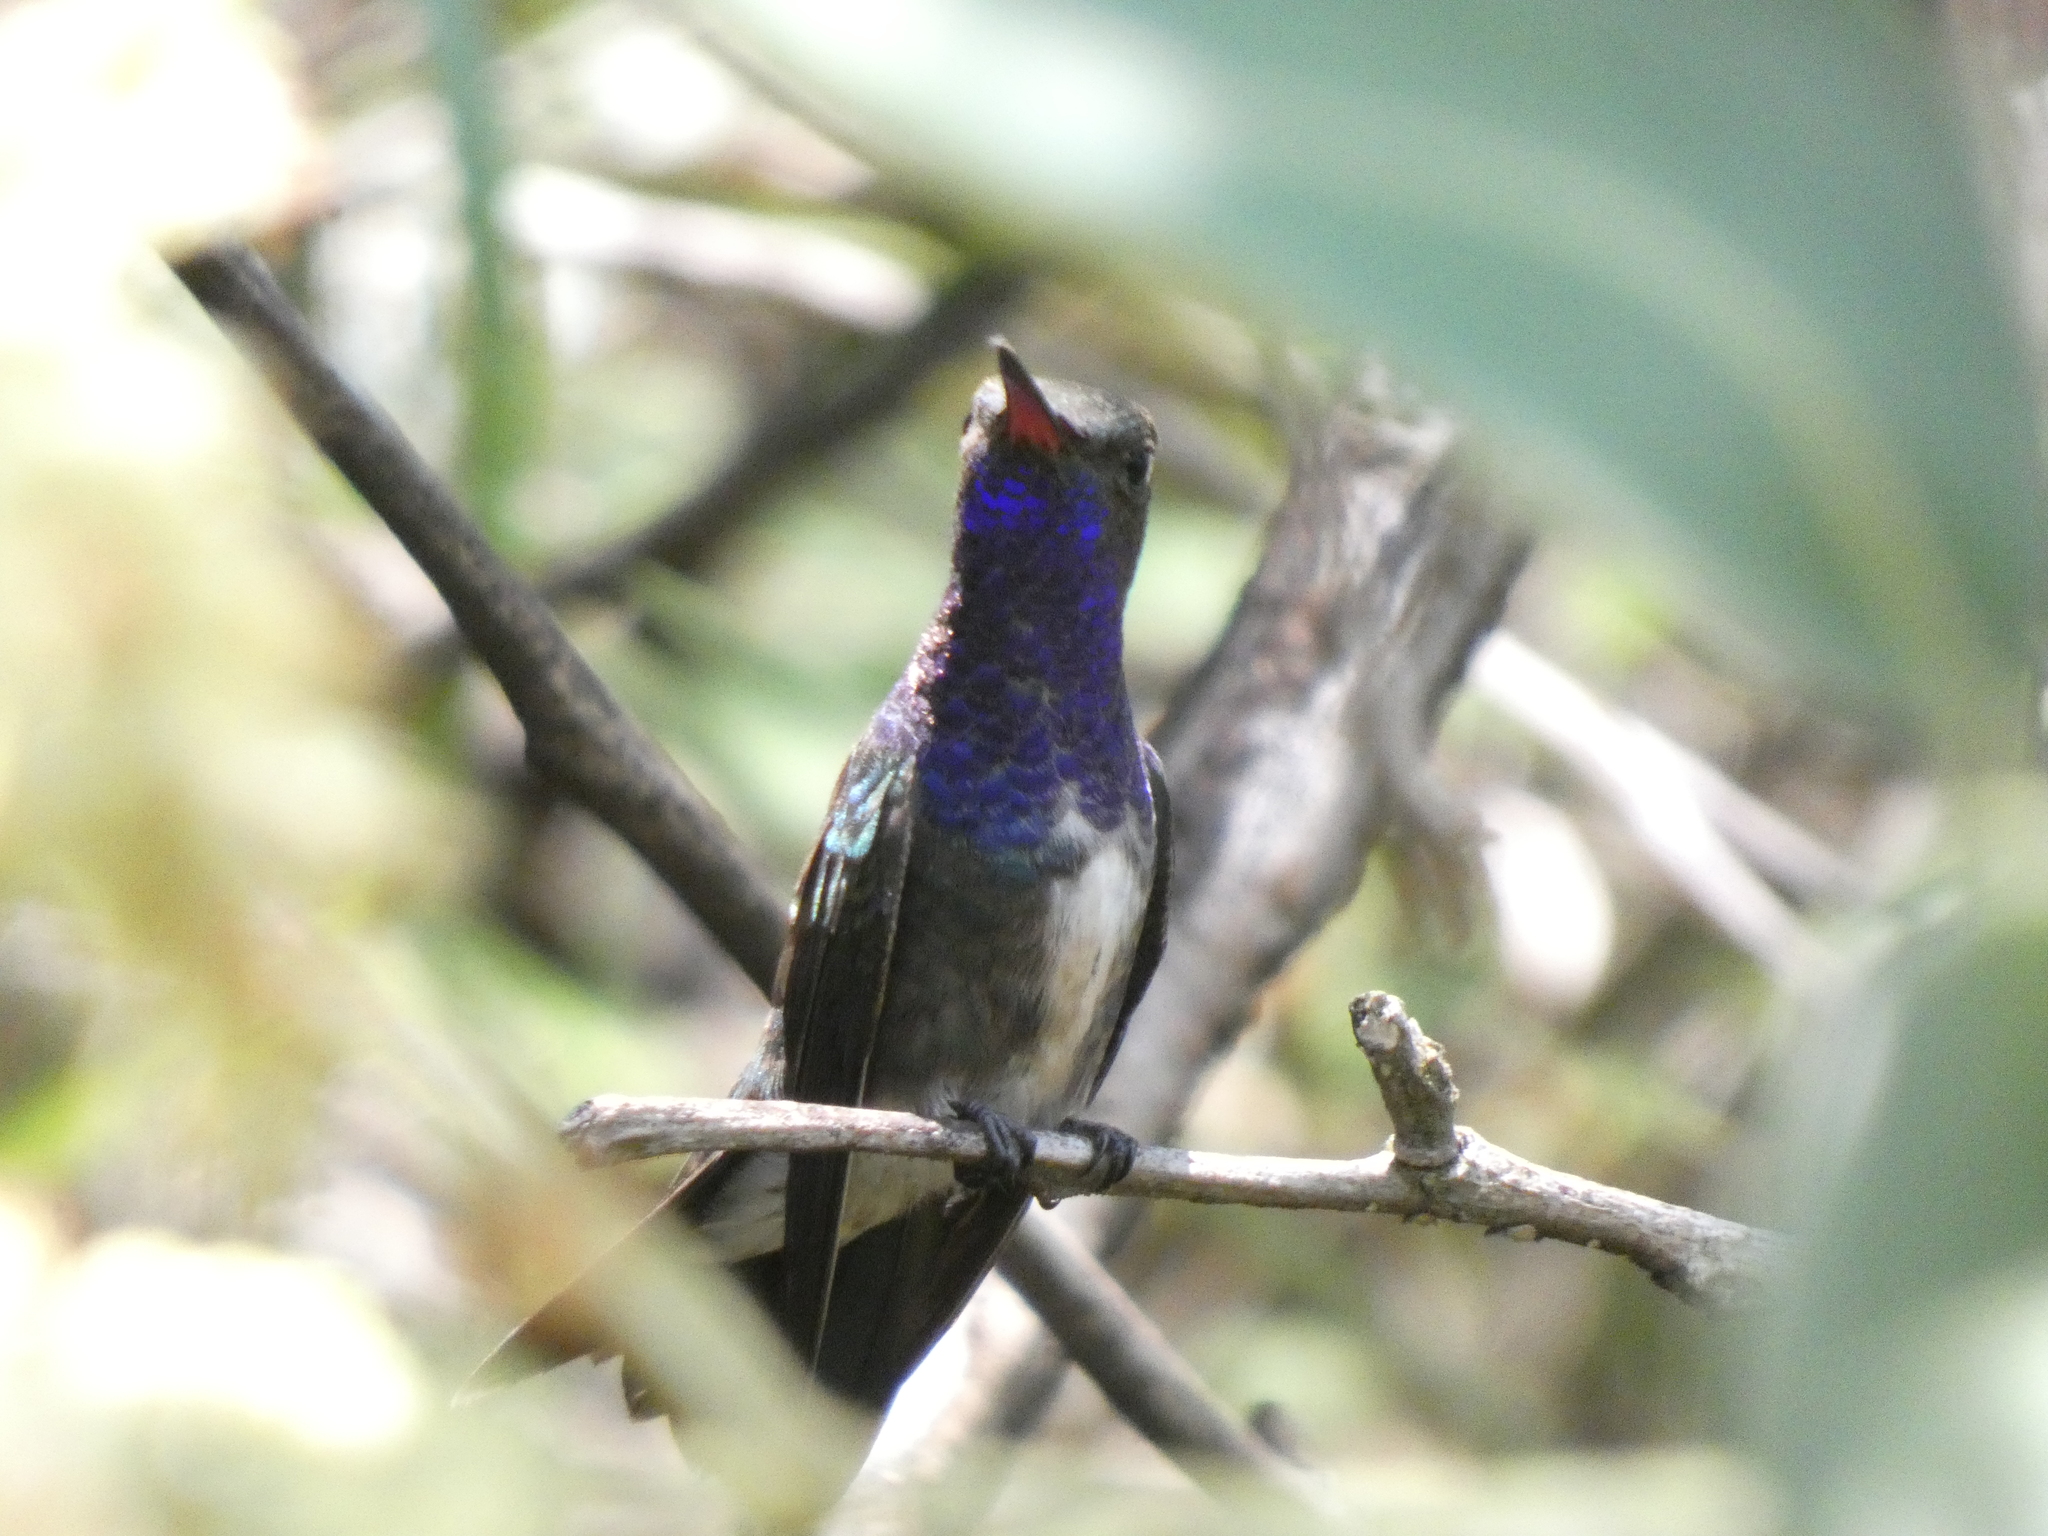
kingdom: Animalia
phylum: Chordata
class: Aves
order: Apodiformes
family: Trochilidae
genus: Chionomesa
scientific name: Chionomesa lactea
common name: Sapphire-spangled emerald
